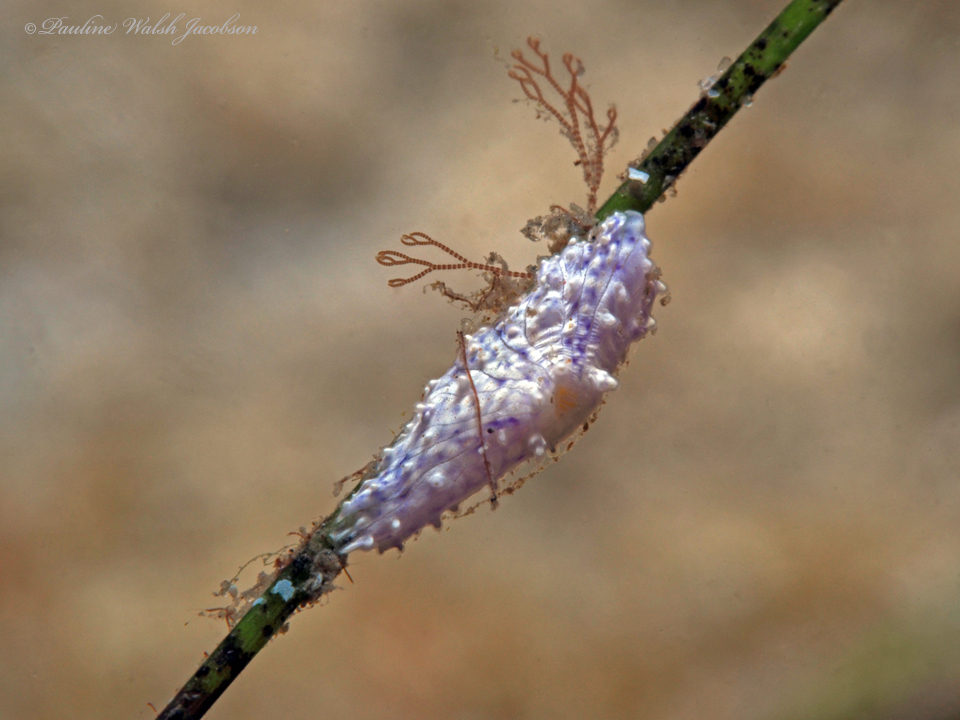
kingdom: Animalia
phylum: Cnidaria
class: Anthozoa
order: Actiniaria
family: Boloceroididae
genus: Bunodeopsis
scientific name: Bunodeopsis globulifera
